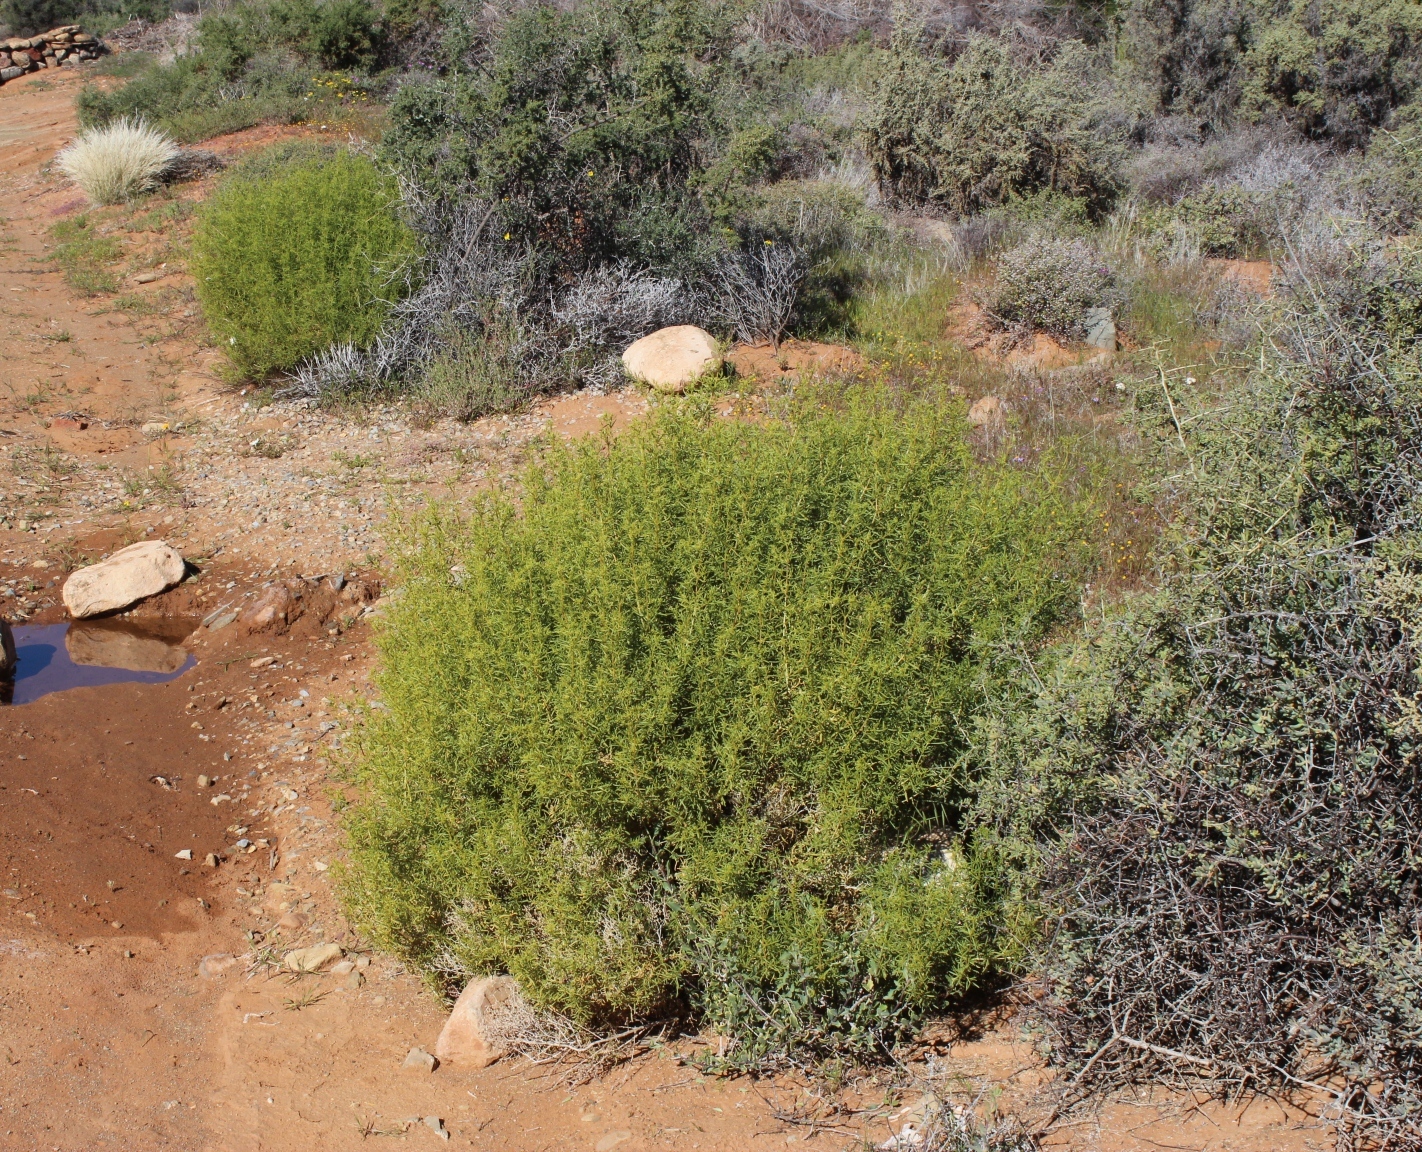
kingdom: Plantae
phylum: Tracheophyta
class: Magnoliopsida
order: Caryophyllales
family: Aizoaceae
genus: Aizoon
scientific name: Aizoon africanum
